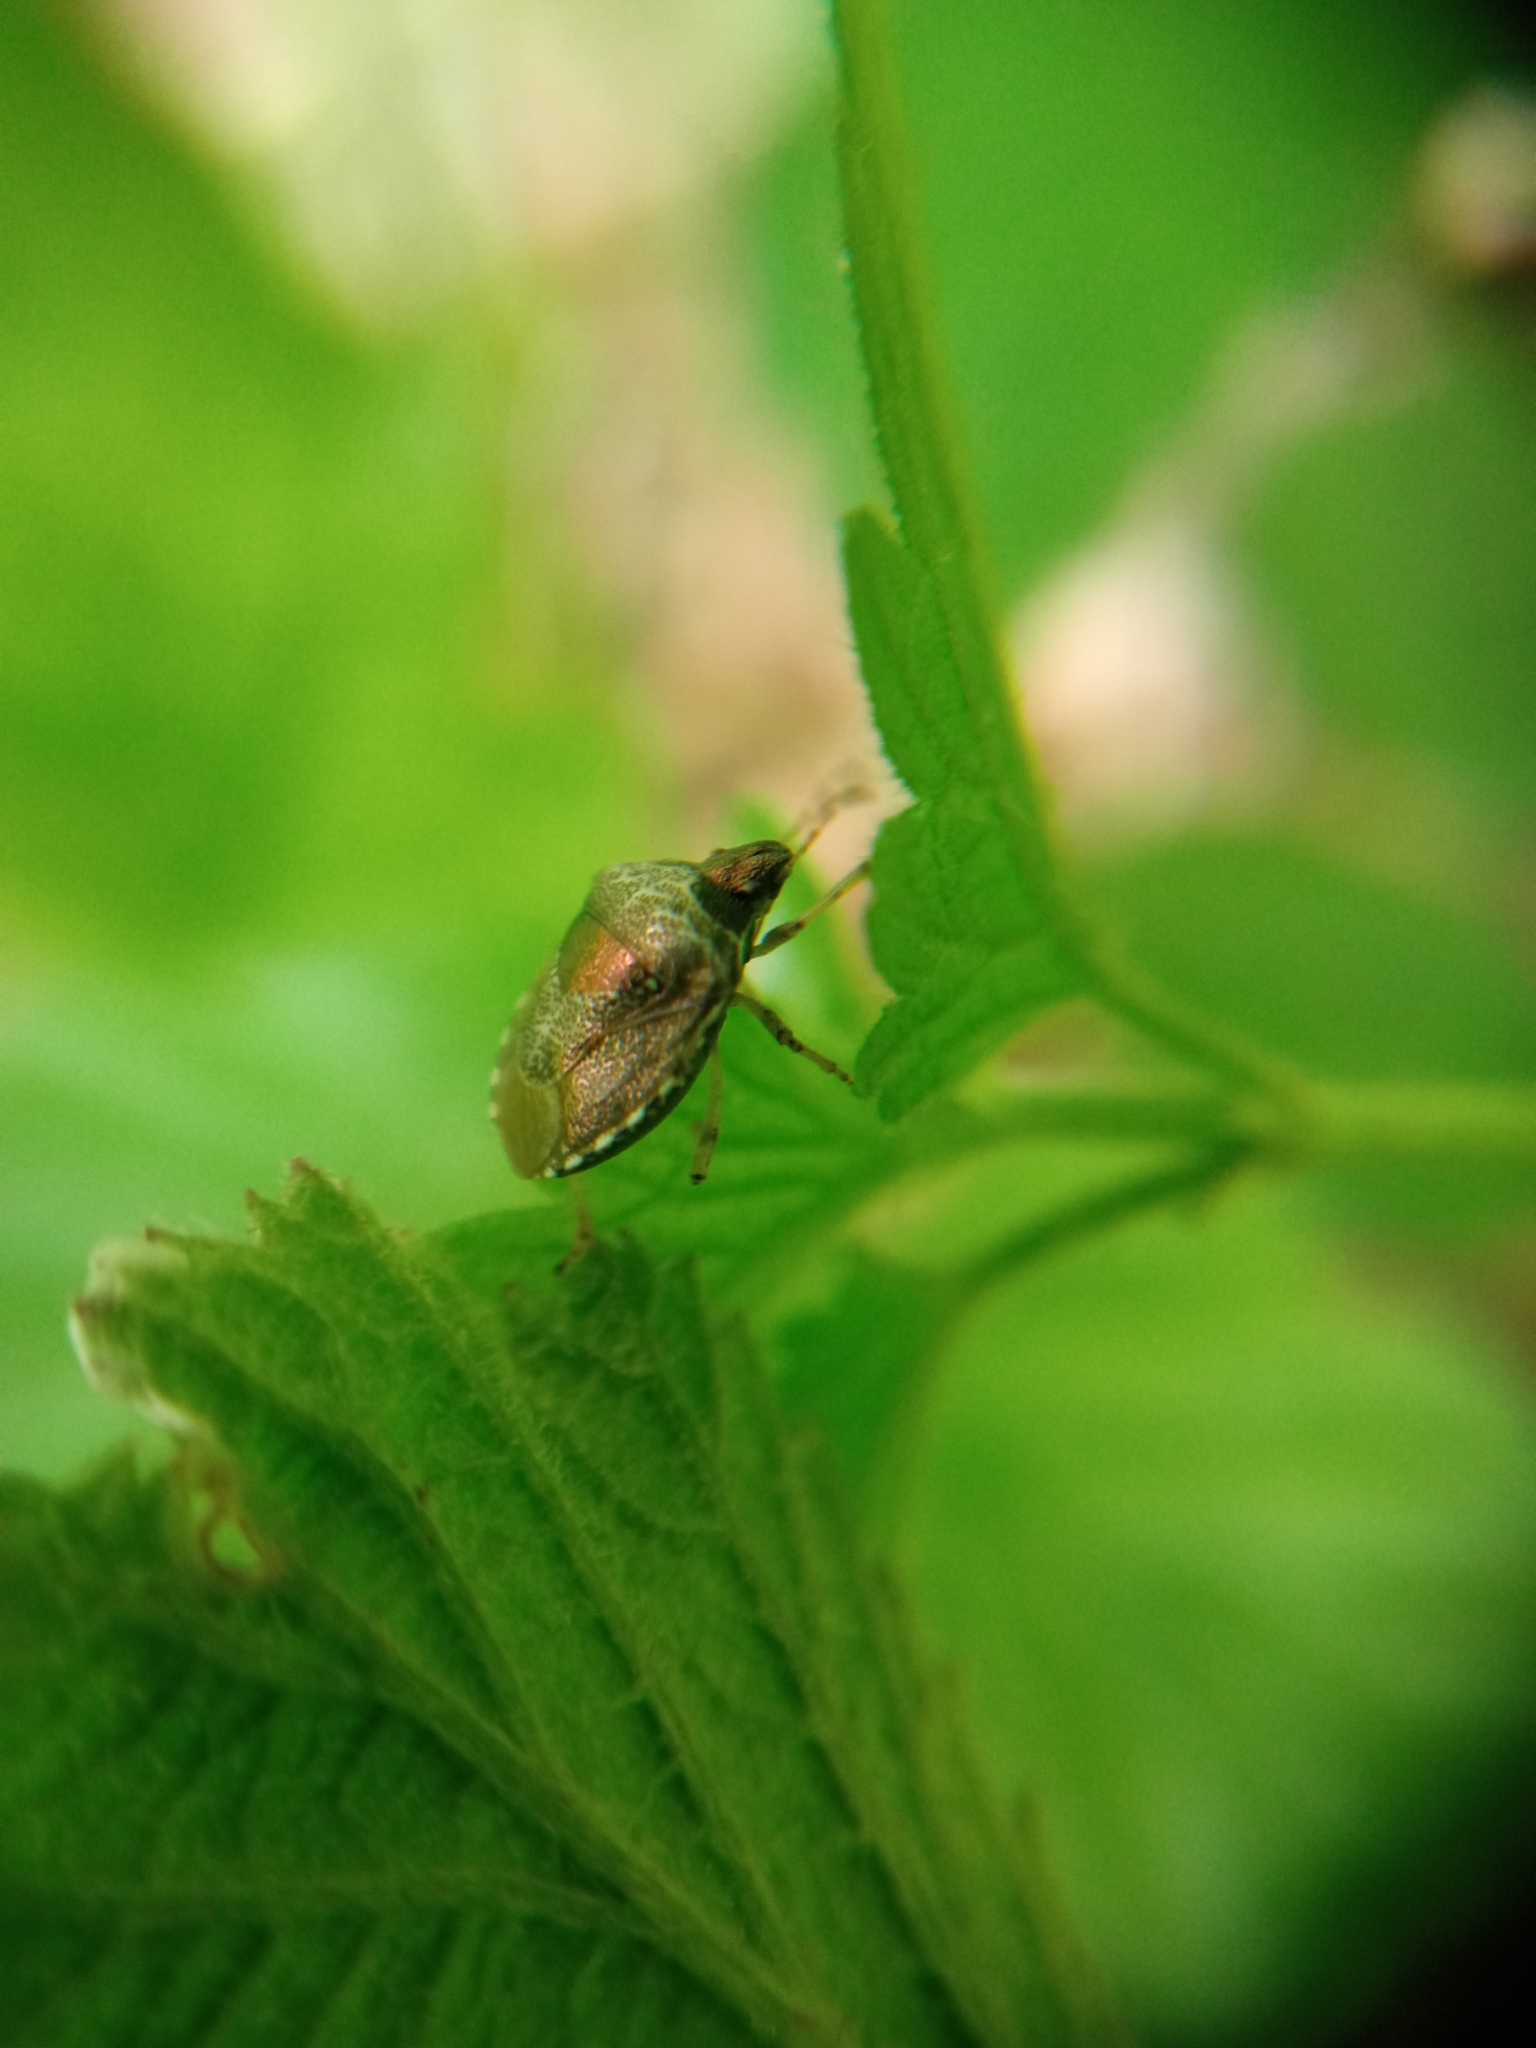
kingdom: Animalia
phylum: Arthropoda
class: Insecta
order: Hemiptera
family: Pentatomidae
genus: Eysarcoris
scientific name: Eysarcoris venustissimus
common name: Woundwort shieldbug
